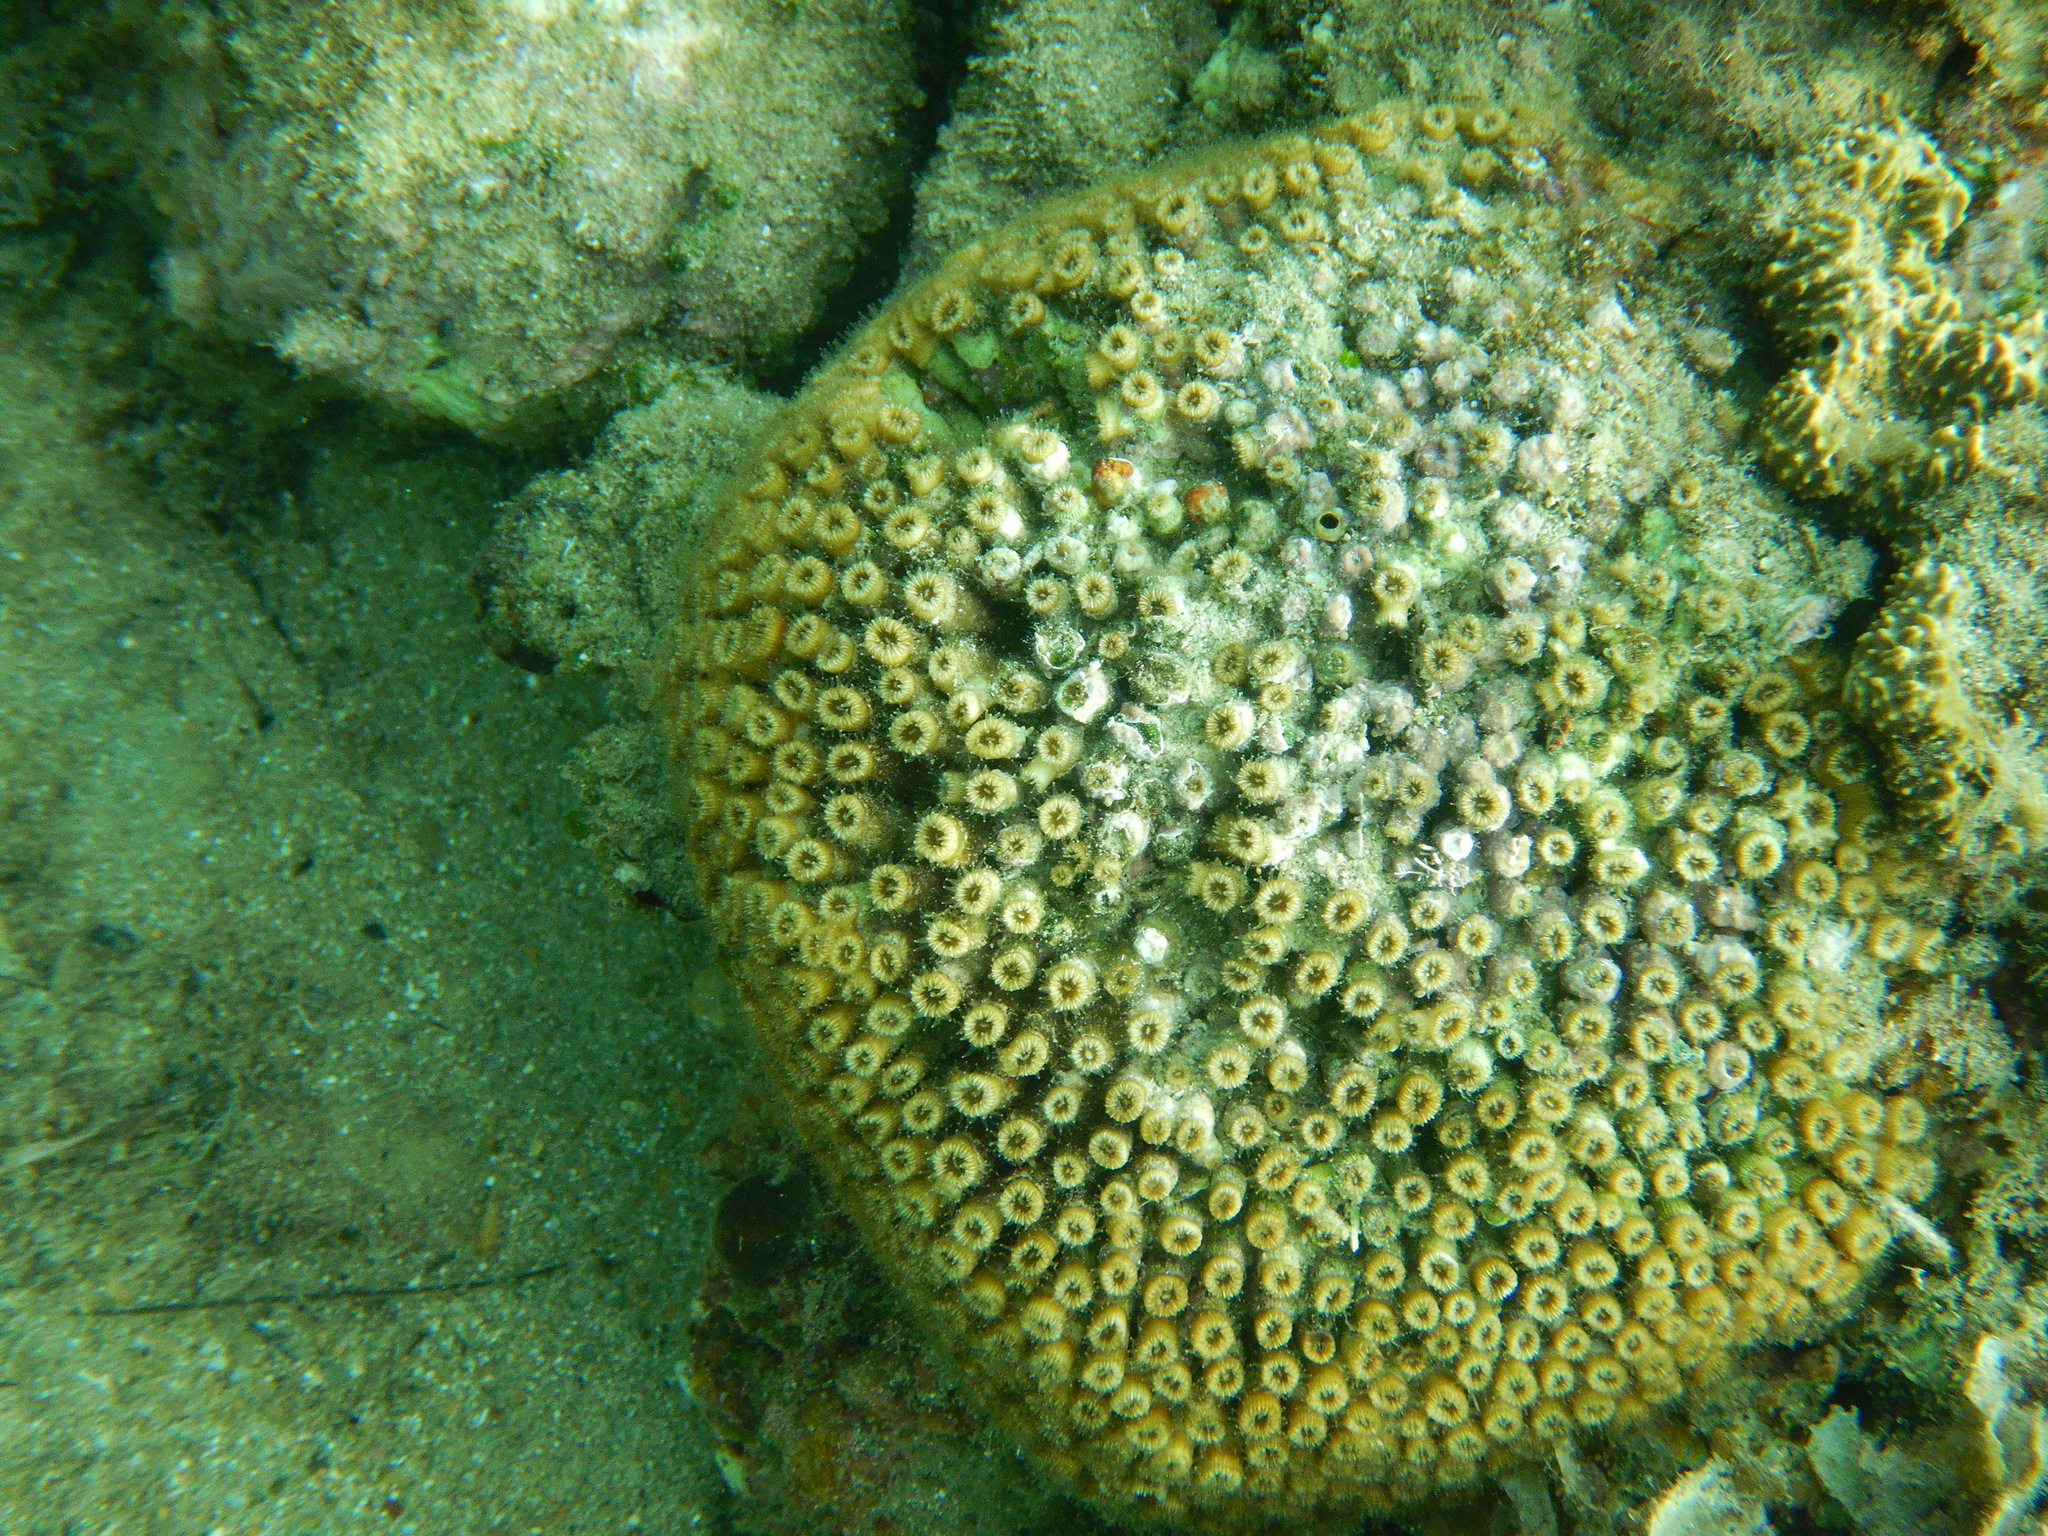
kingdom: Animalia
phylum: Cnidaria
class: Anthozoa
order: Scleractinia
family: Cladocoridae
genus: Cladocora
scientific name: Cladocora caespitosa
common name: Cladocora
